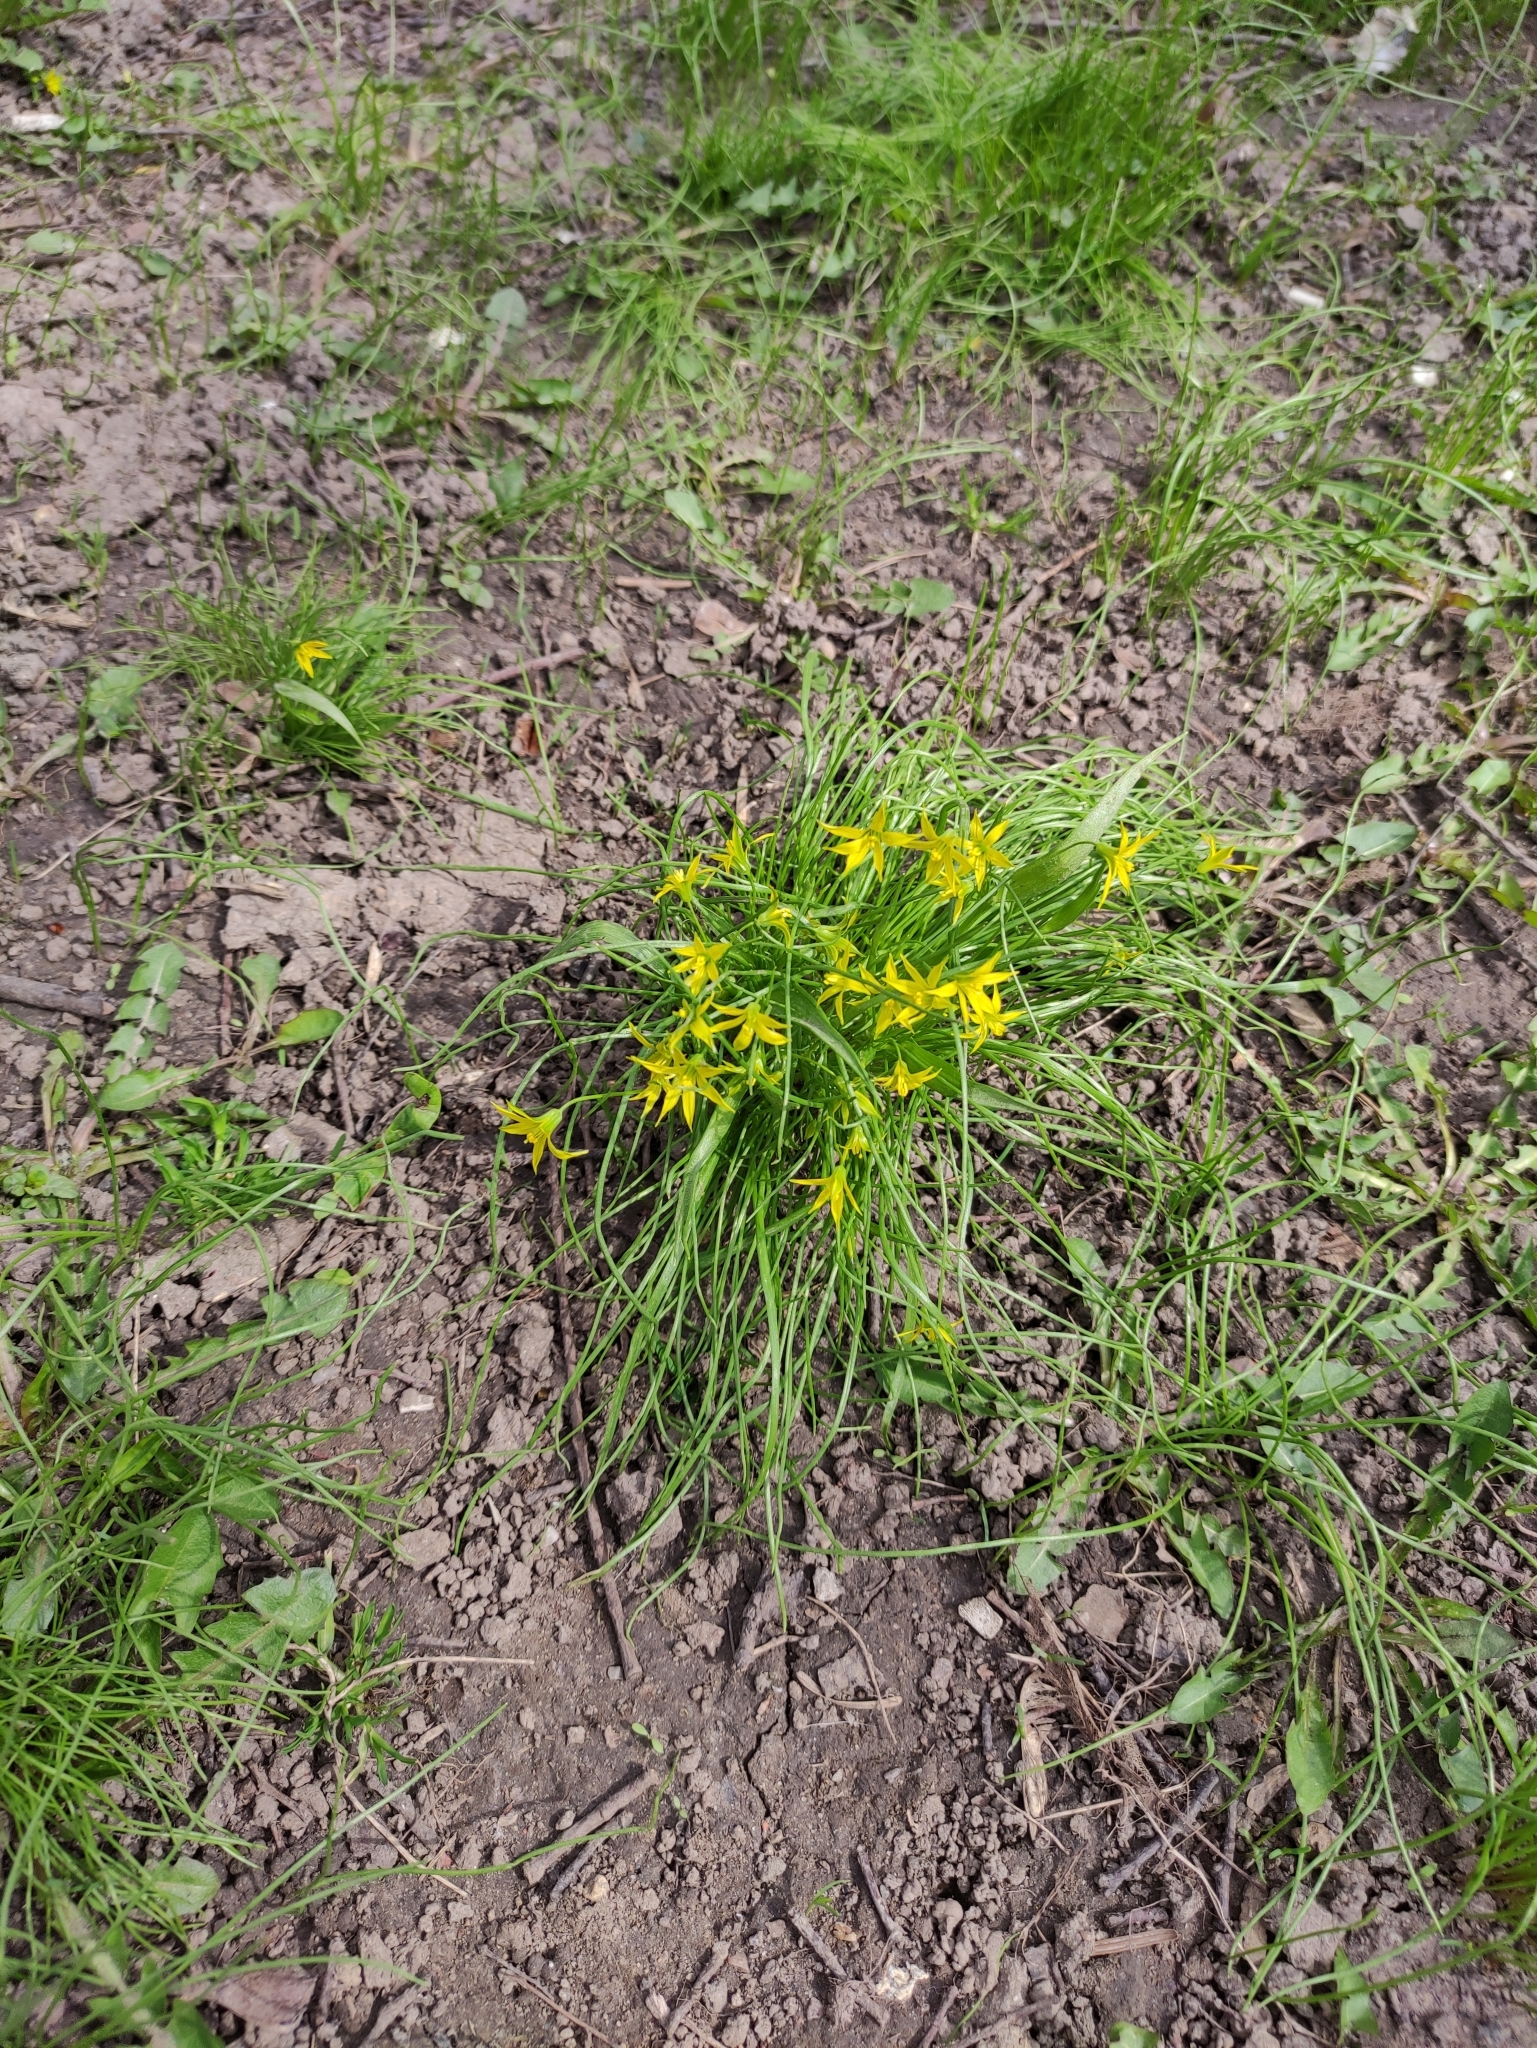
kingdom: Plantae
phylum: Tracheophyta
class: Liliopsida
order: Liliales
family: Liliaceae
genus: Gagea
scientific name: Gagea minima
